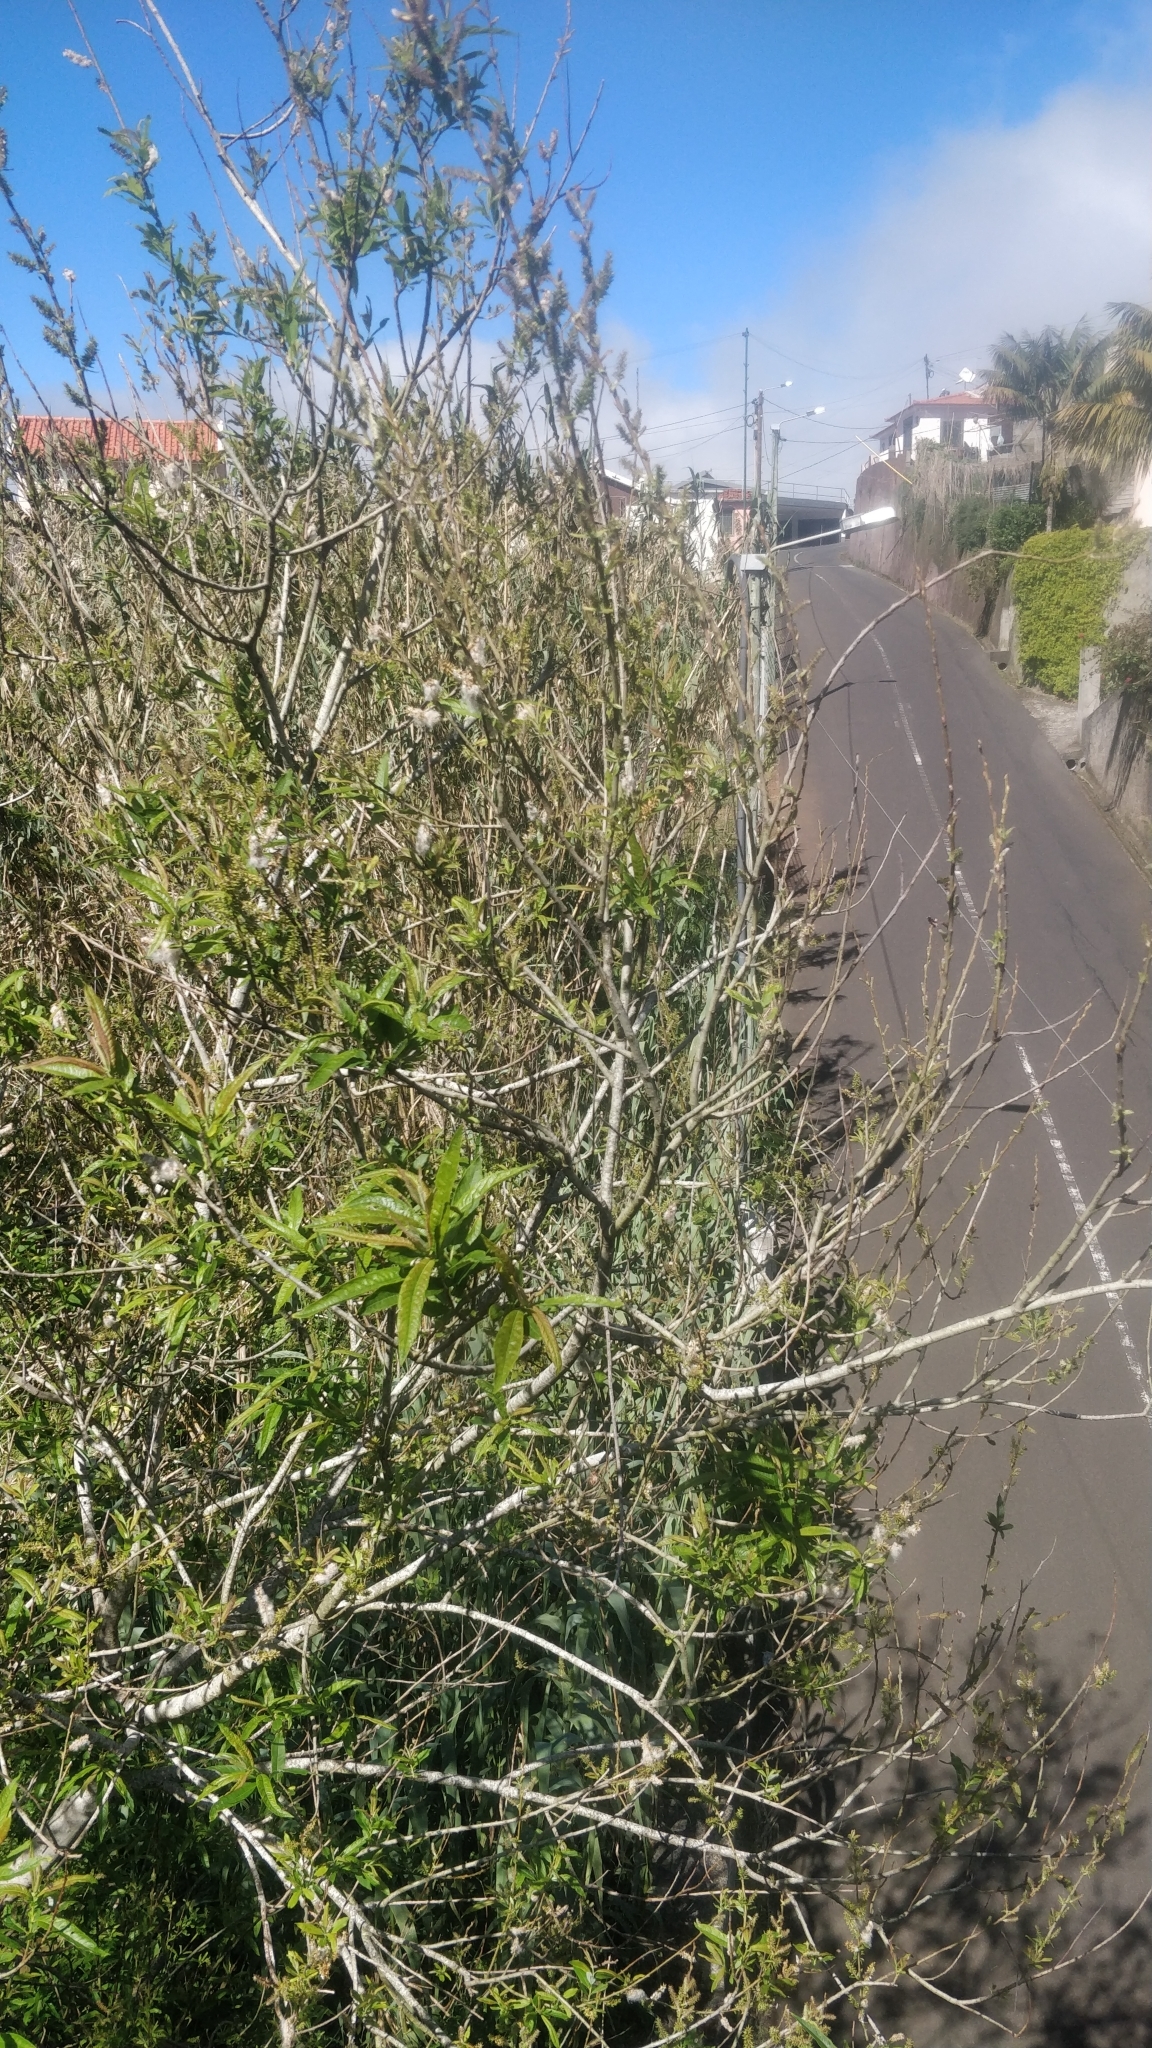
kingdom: Plantae
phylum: Tracheophyta
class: Magnoliopsida
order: Malpighiales
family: Salicaceae
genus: Salix
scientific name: Salix canariensis
